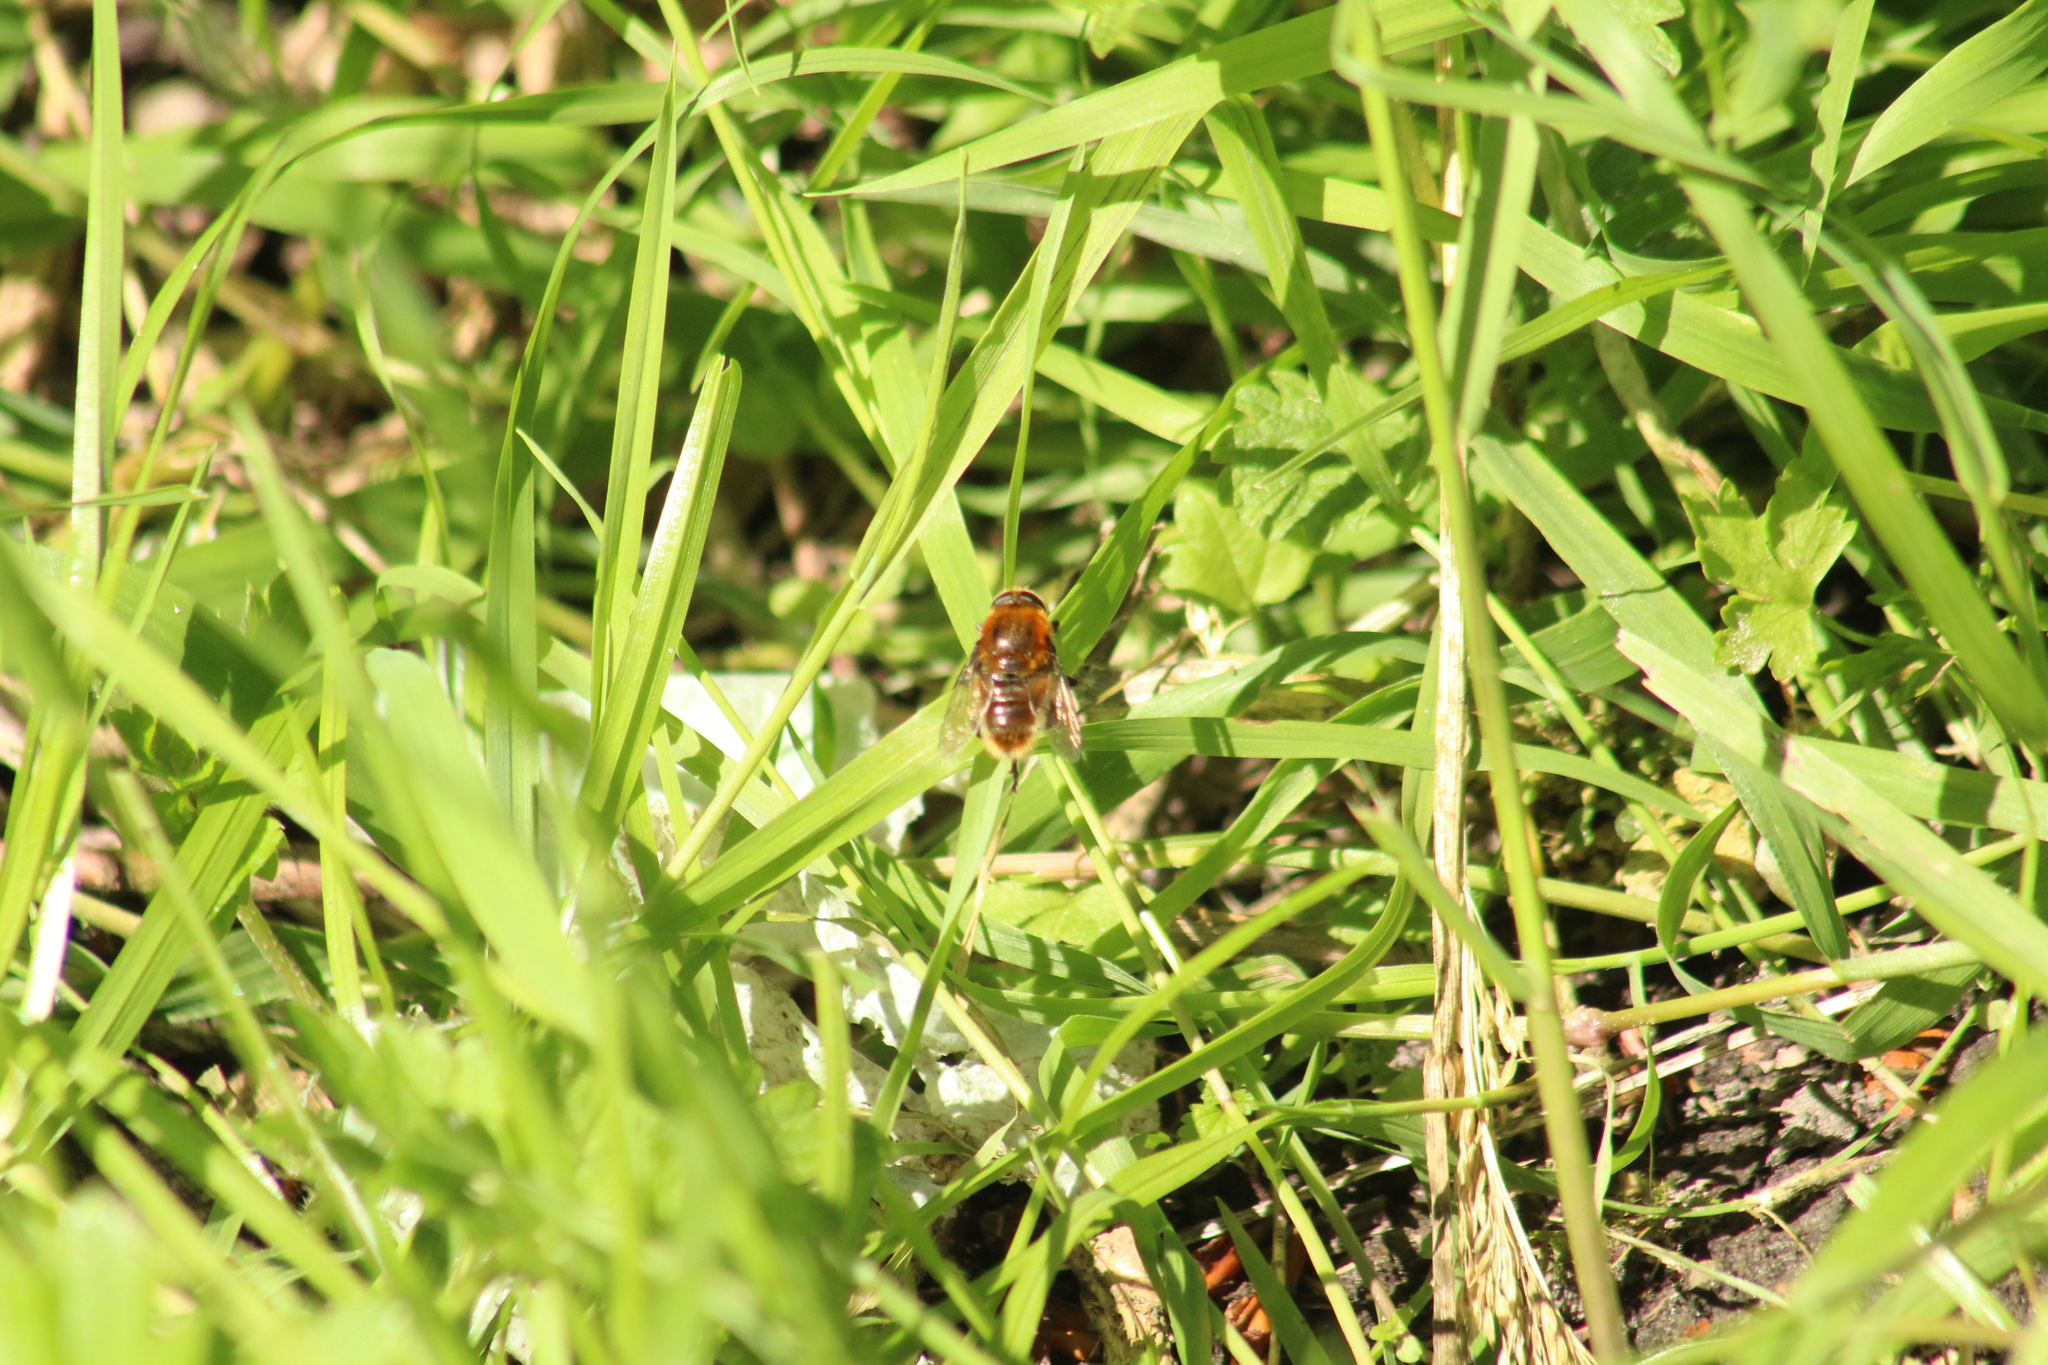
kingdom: Animalia
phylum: Arthropoda
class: Insecta
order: Diptera
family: Syrphidae
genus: Cheilosia
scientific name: Cheilosia chrysocoma
